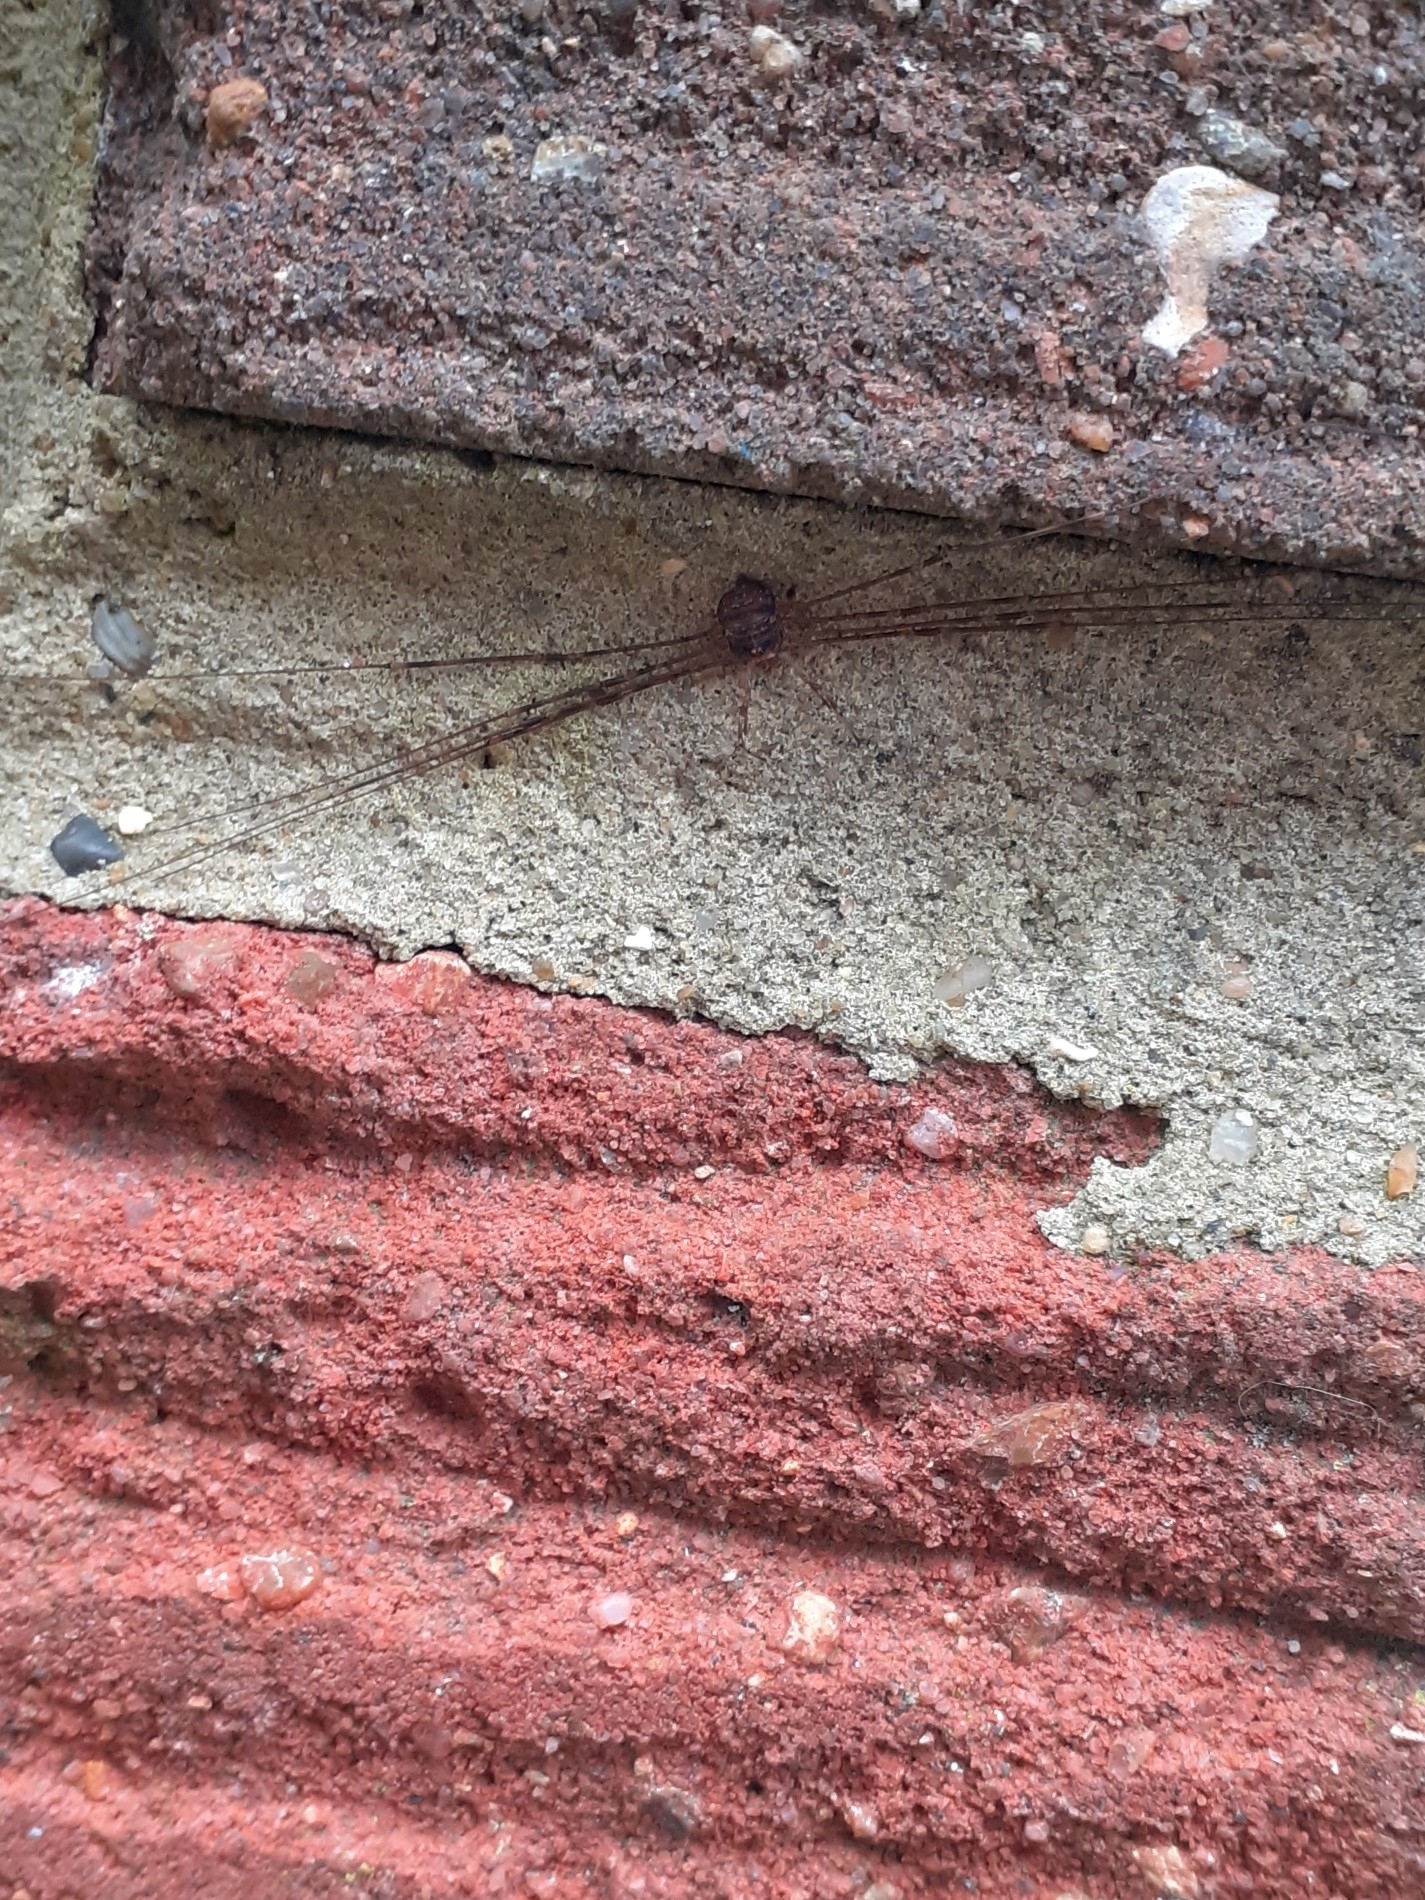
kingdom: Animalia
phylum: Arthropoda
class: Arachnida
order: Opiliones
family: Phalangiidae
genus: Dicranopalpus
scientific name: Dicranopalpus ramosus
